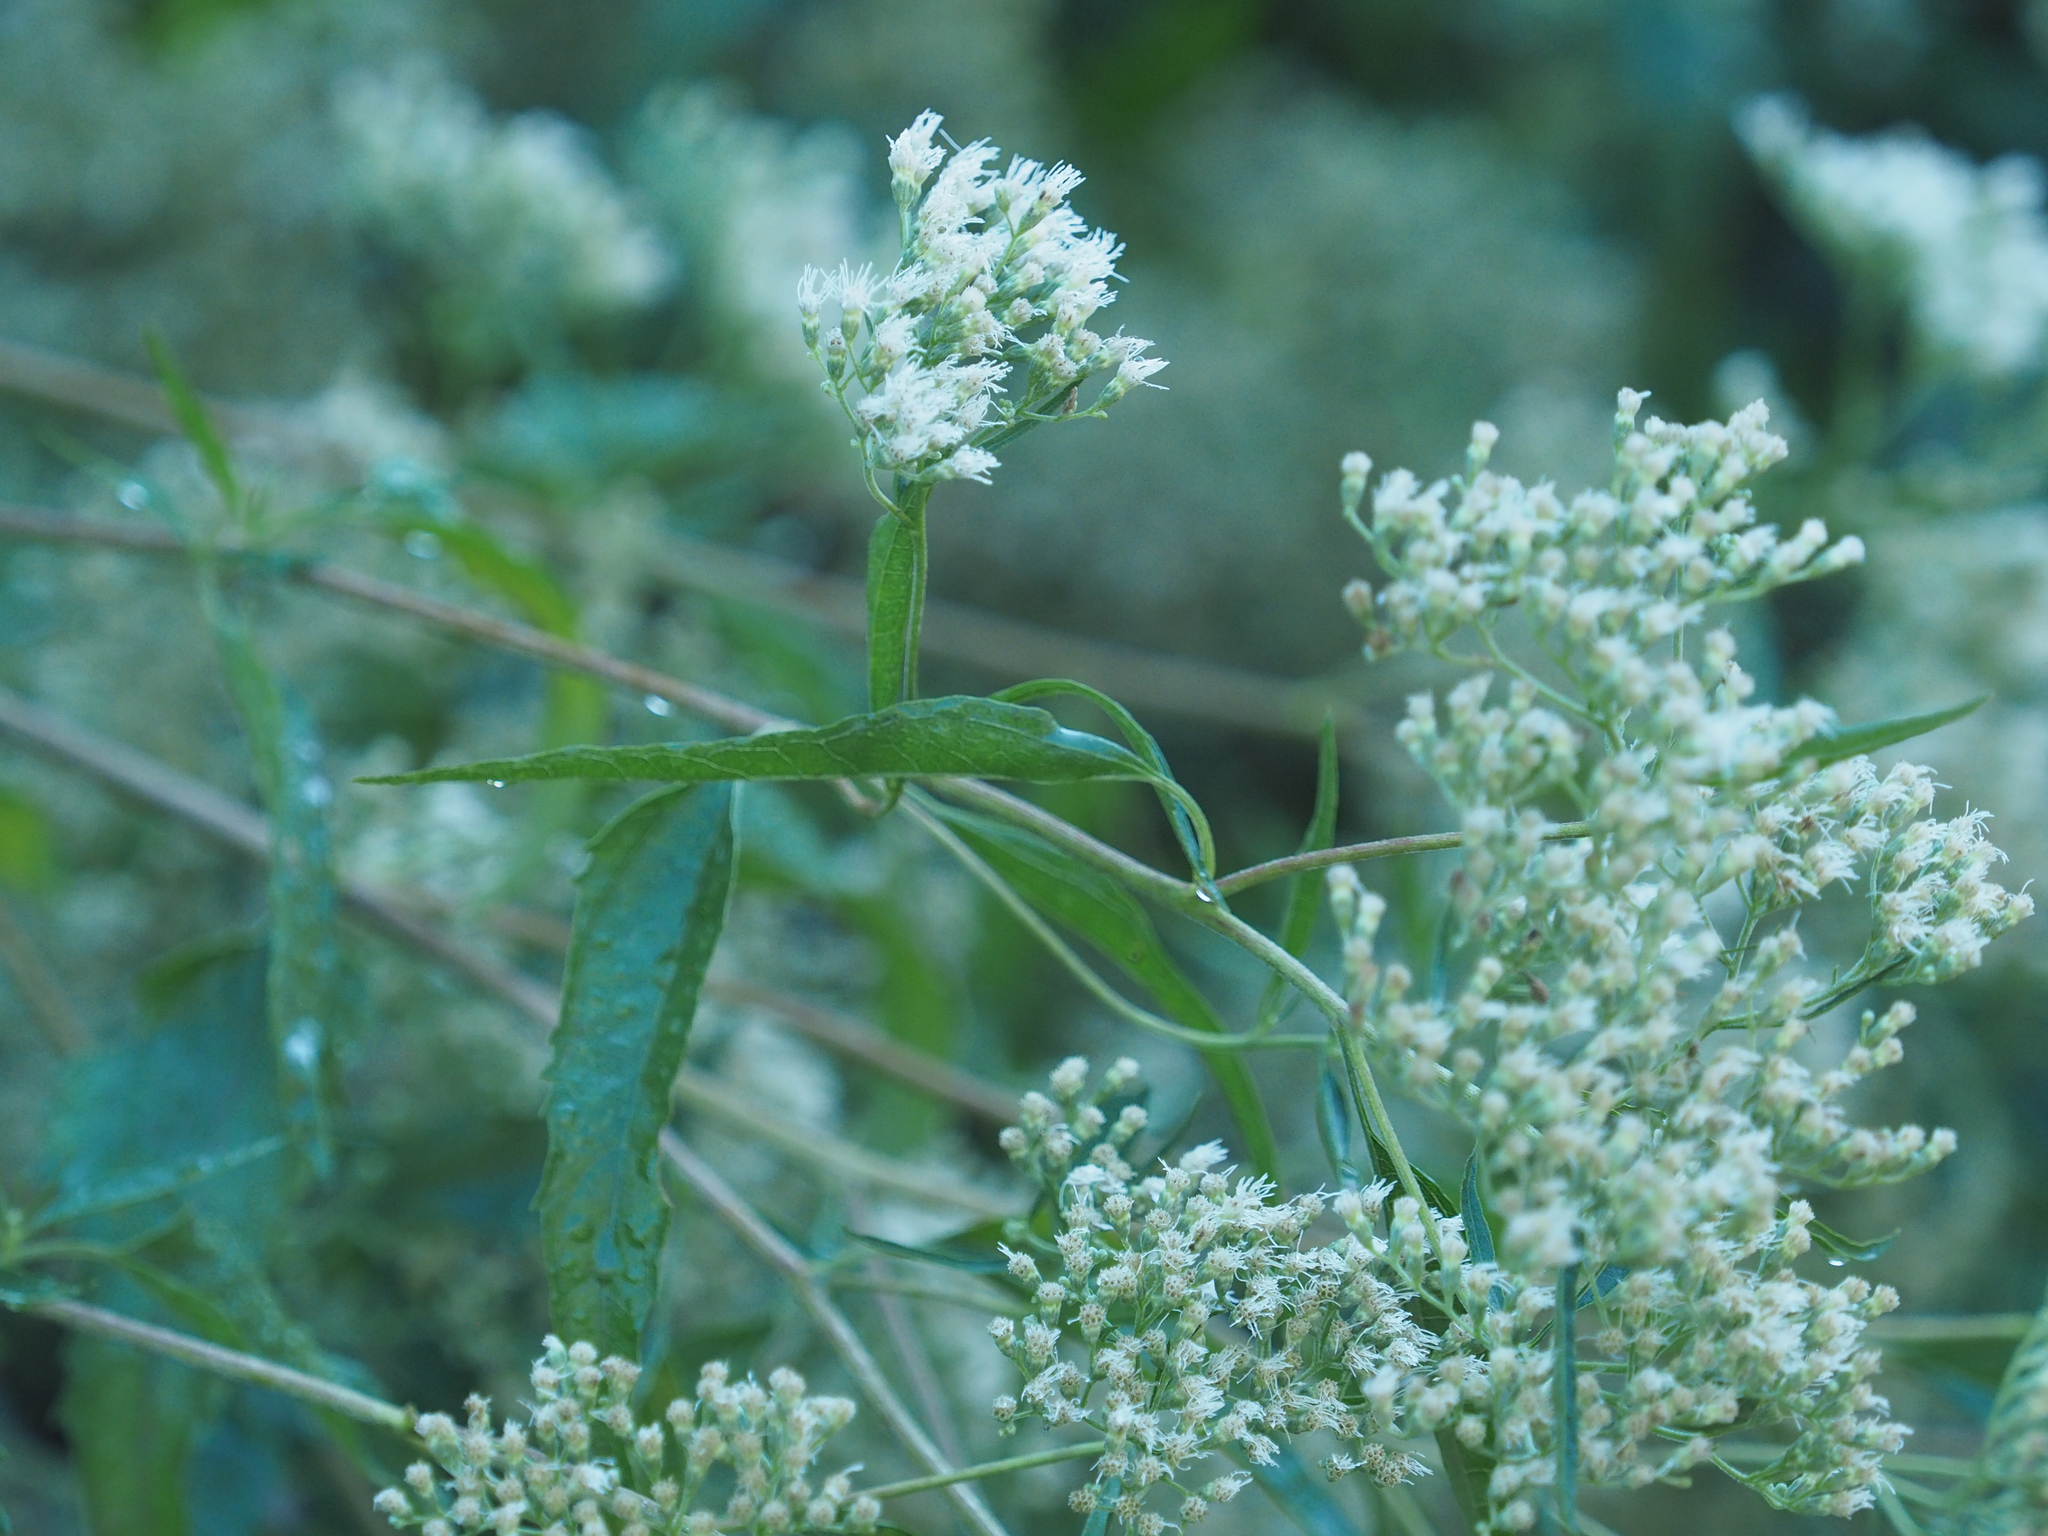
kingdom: Plantae
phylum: Tracheophyta
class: Magnoliopsida
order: Asterales
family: Asteraceae
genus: Eupatorium
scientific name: Eupatorium serotinum
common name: Late boneset
